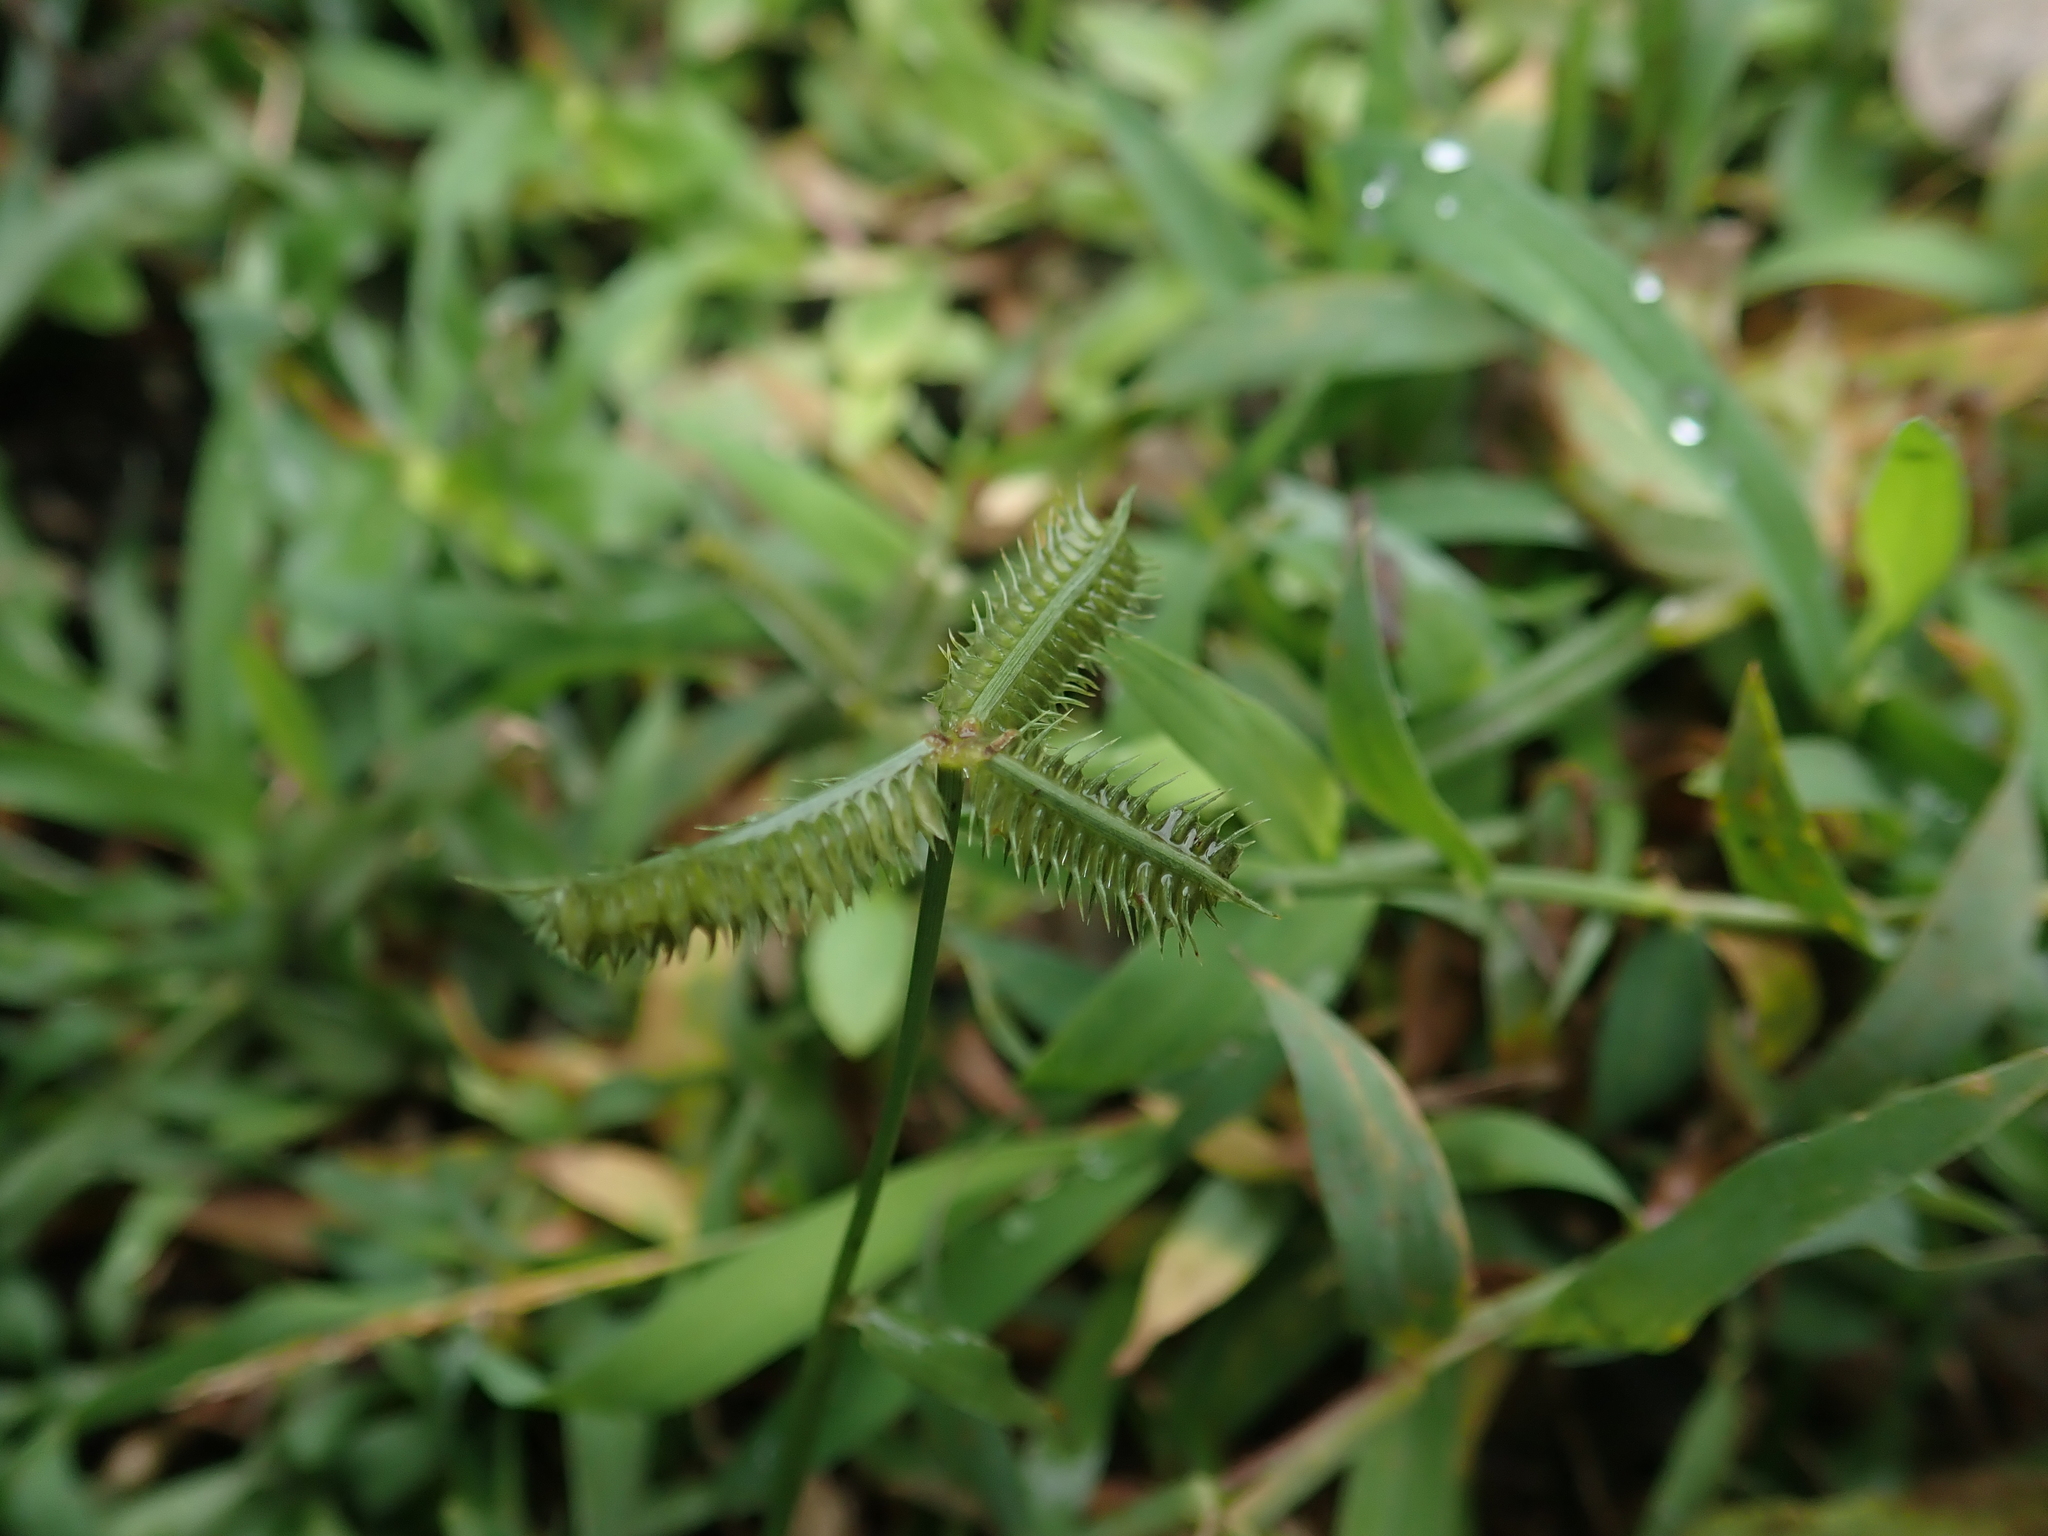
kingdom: Plantae
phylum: Tracheophyta
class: Liliopsida
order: Poales
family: Poaceae
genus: Dactyloctenium
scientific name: Dactyloctenium aegyptium
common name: Egyptian grass
